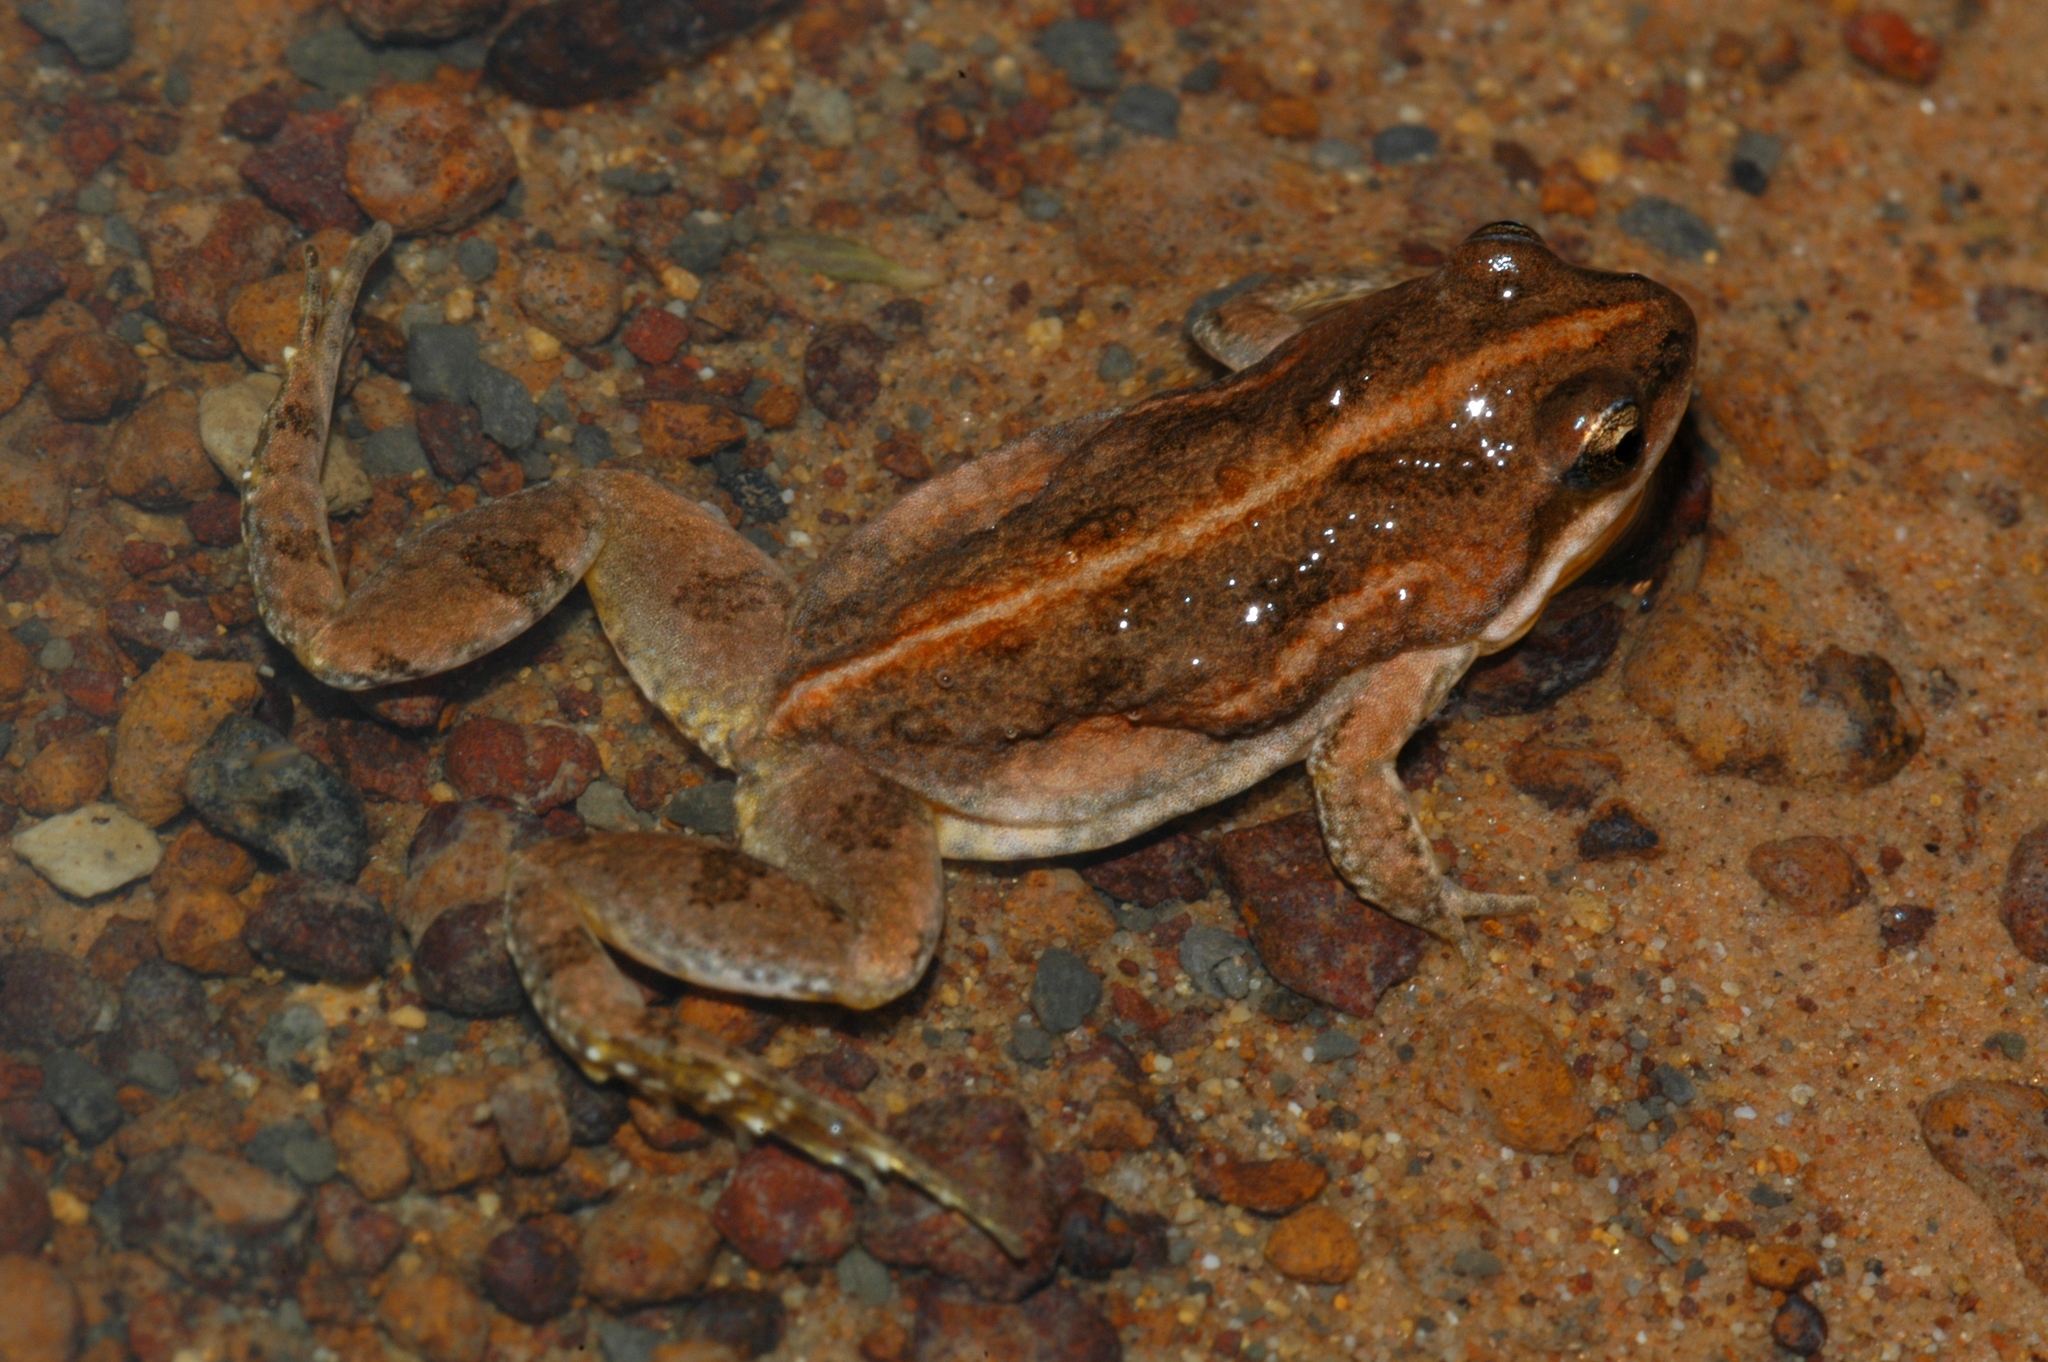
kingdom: Animalia
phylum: Chordata
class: Amphibia
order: Anura
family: Pyxicephalidae
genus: Cacosternum
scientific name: Cacosternum boettgeri
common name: Boettger's frog
